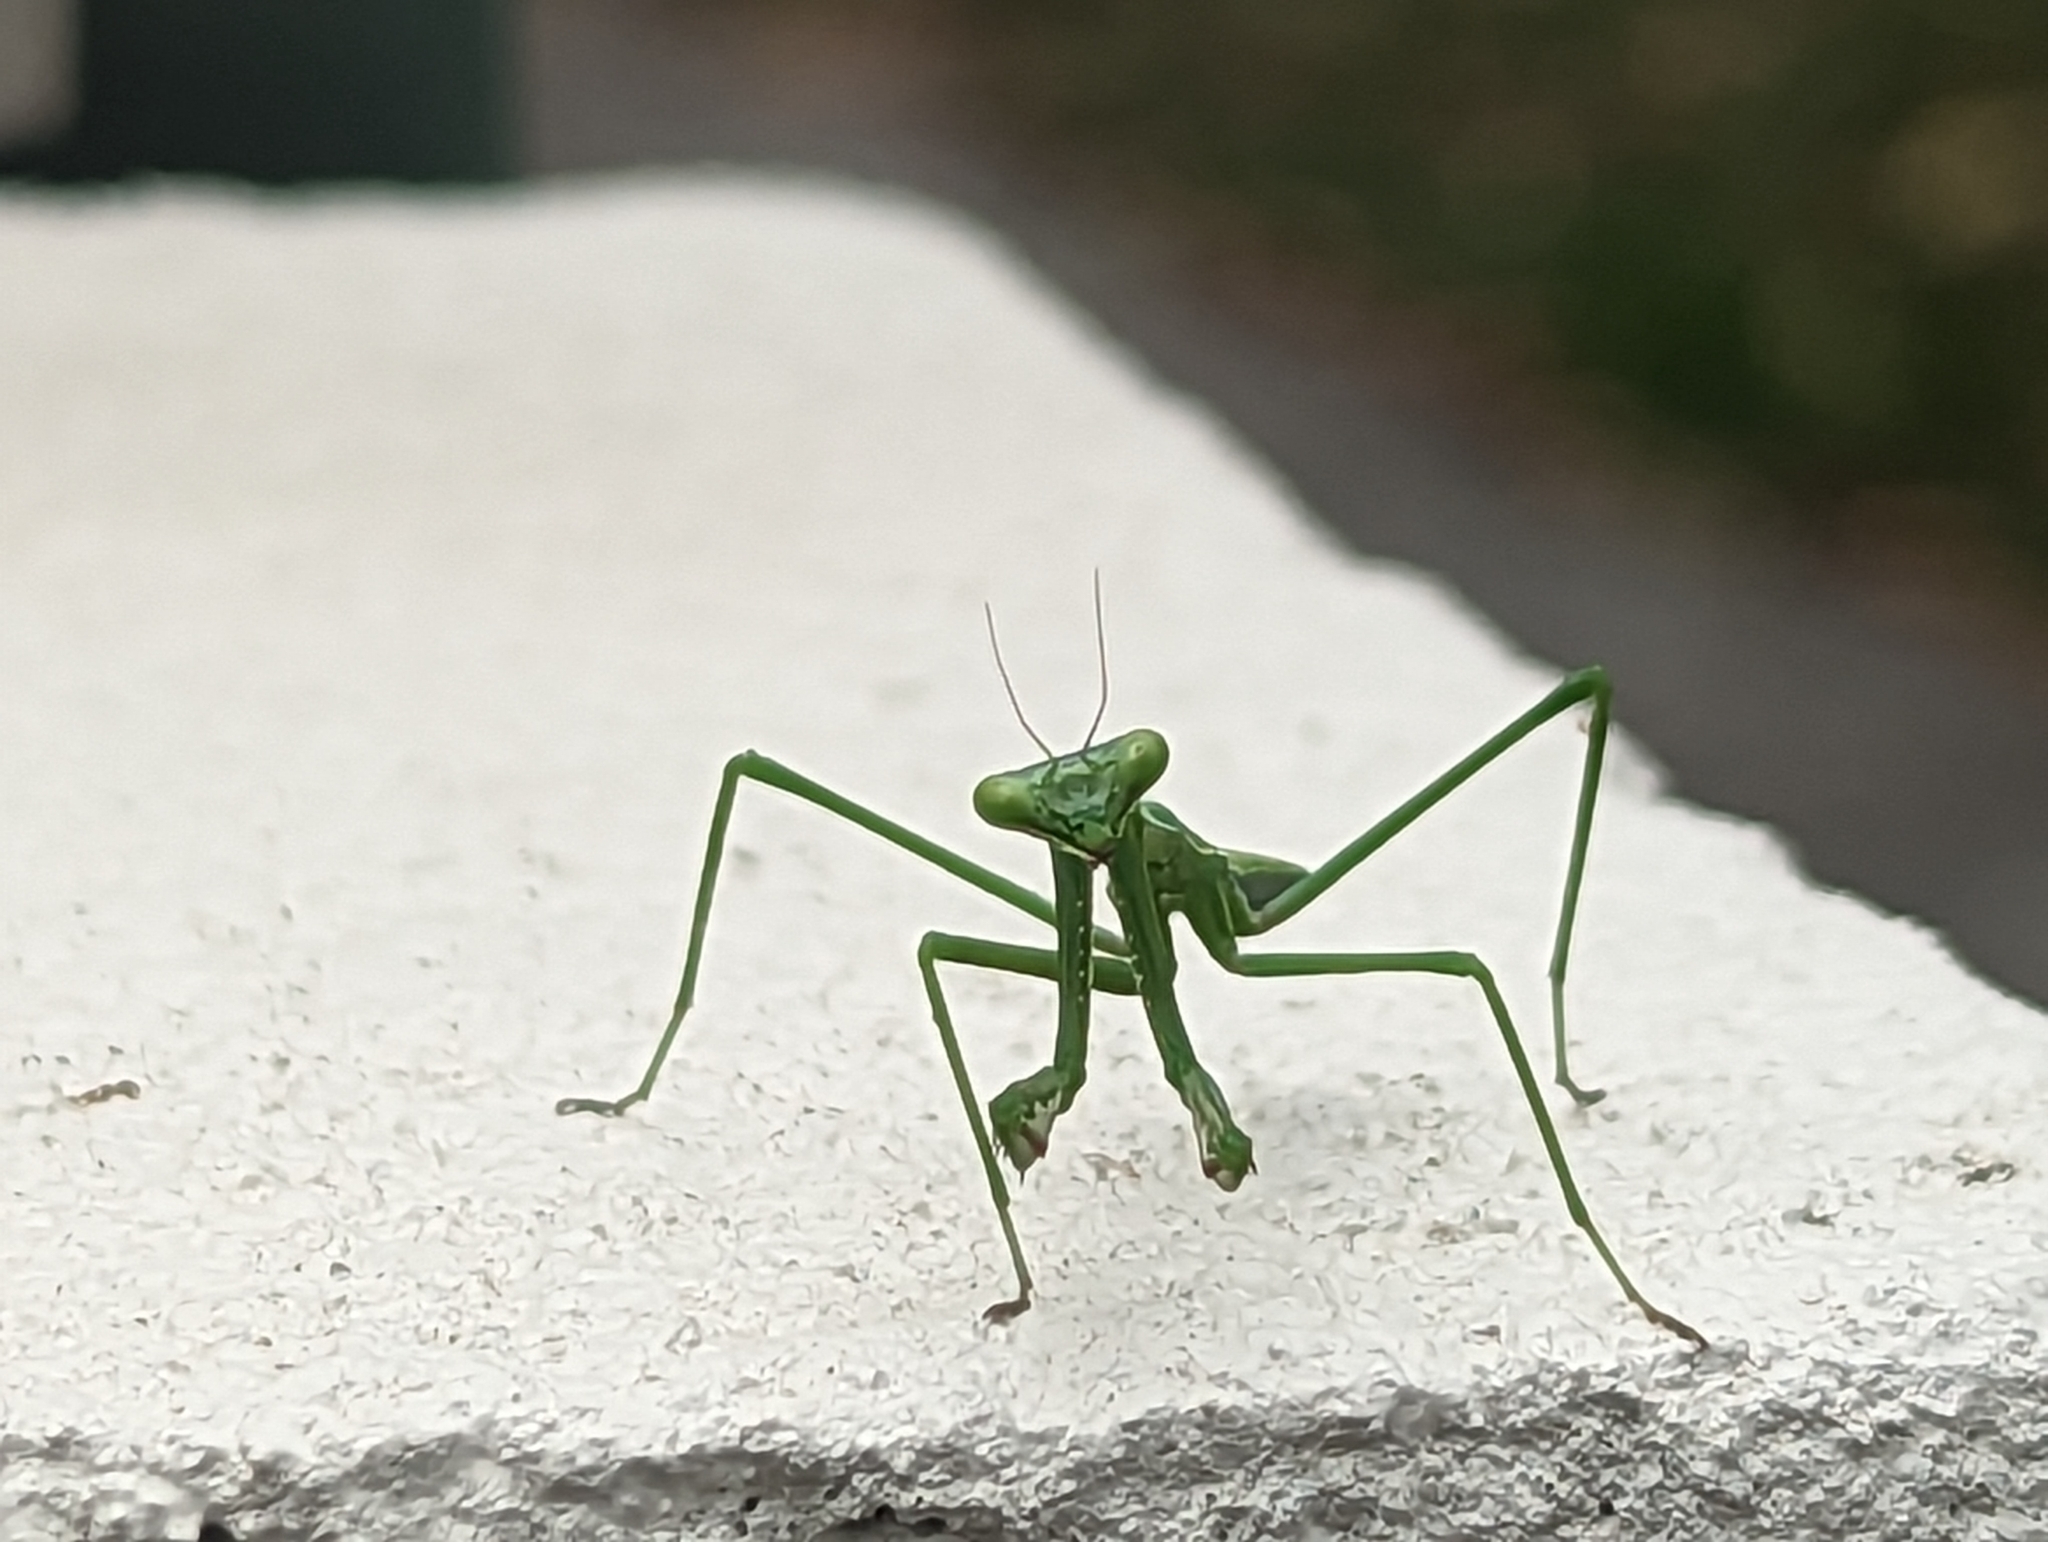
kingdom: Animalia
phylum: Arthropoda
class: Insecta
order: Mantodea
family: Mantidae
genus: Pseudomantis
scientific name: Pseudomantis albofimbriata
